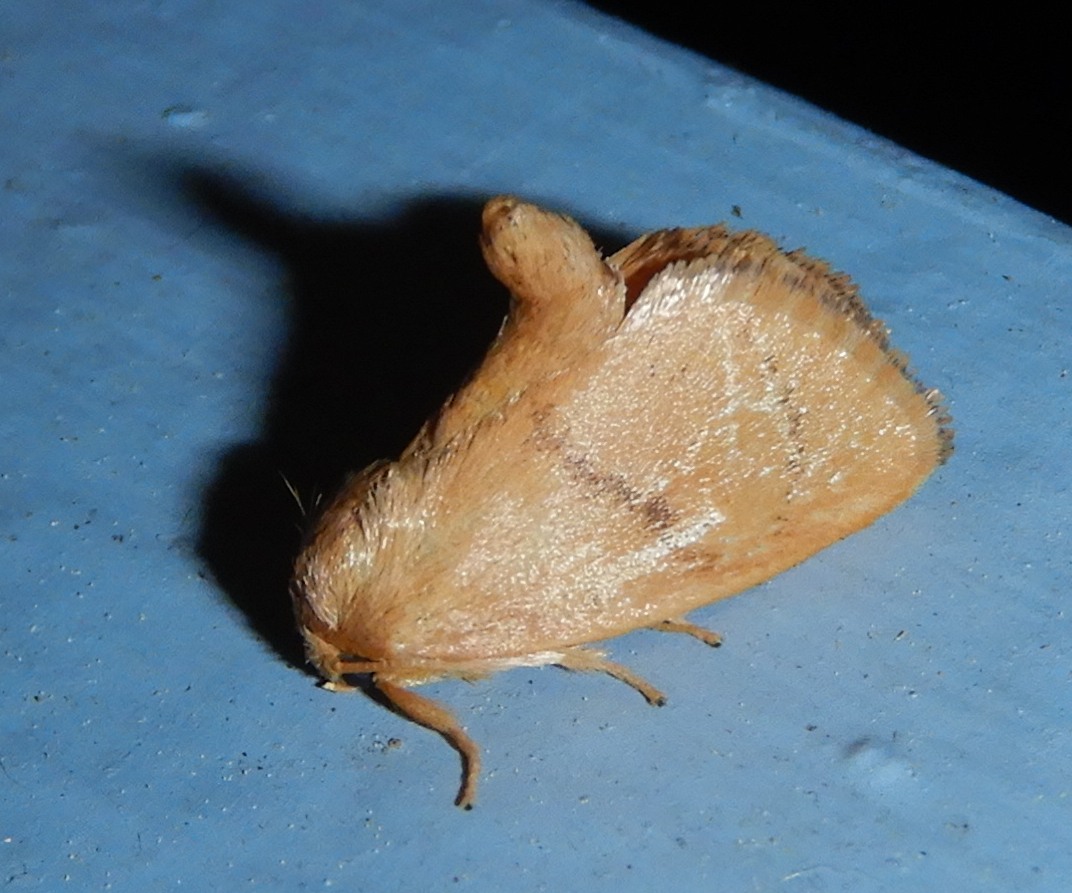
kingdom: Animalia
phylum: Arthropoda
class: Insecta
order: Lepidoptera
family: Limacodidae
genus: Tortricidia
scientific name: Tortricidia flexuosa
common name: Abbreviated button slug moth
